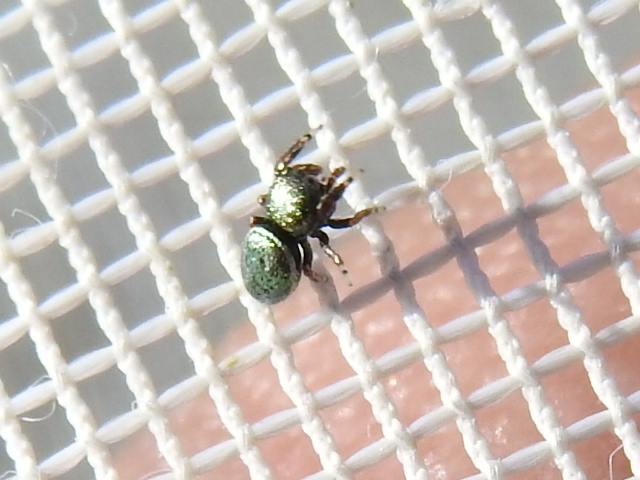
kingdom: Animalia
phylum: Arthropoda
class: Arachnida
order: Araneae
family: Salticidae
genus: Sassacus
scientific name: Sassacus papenhoei
